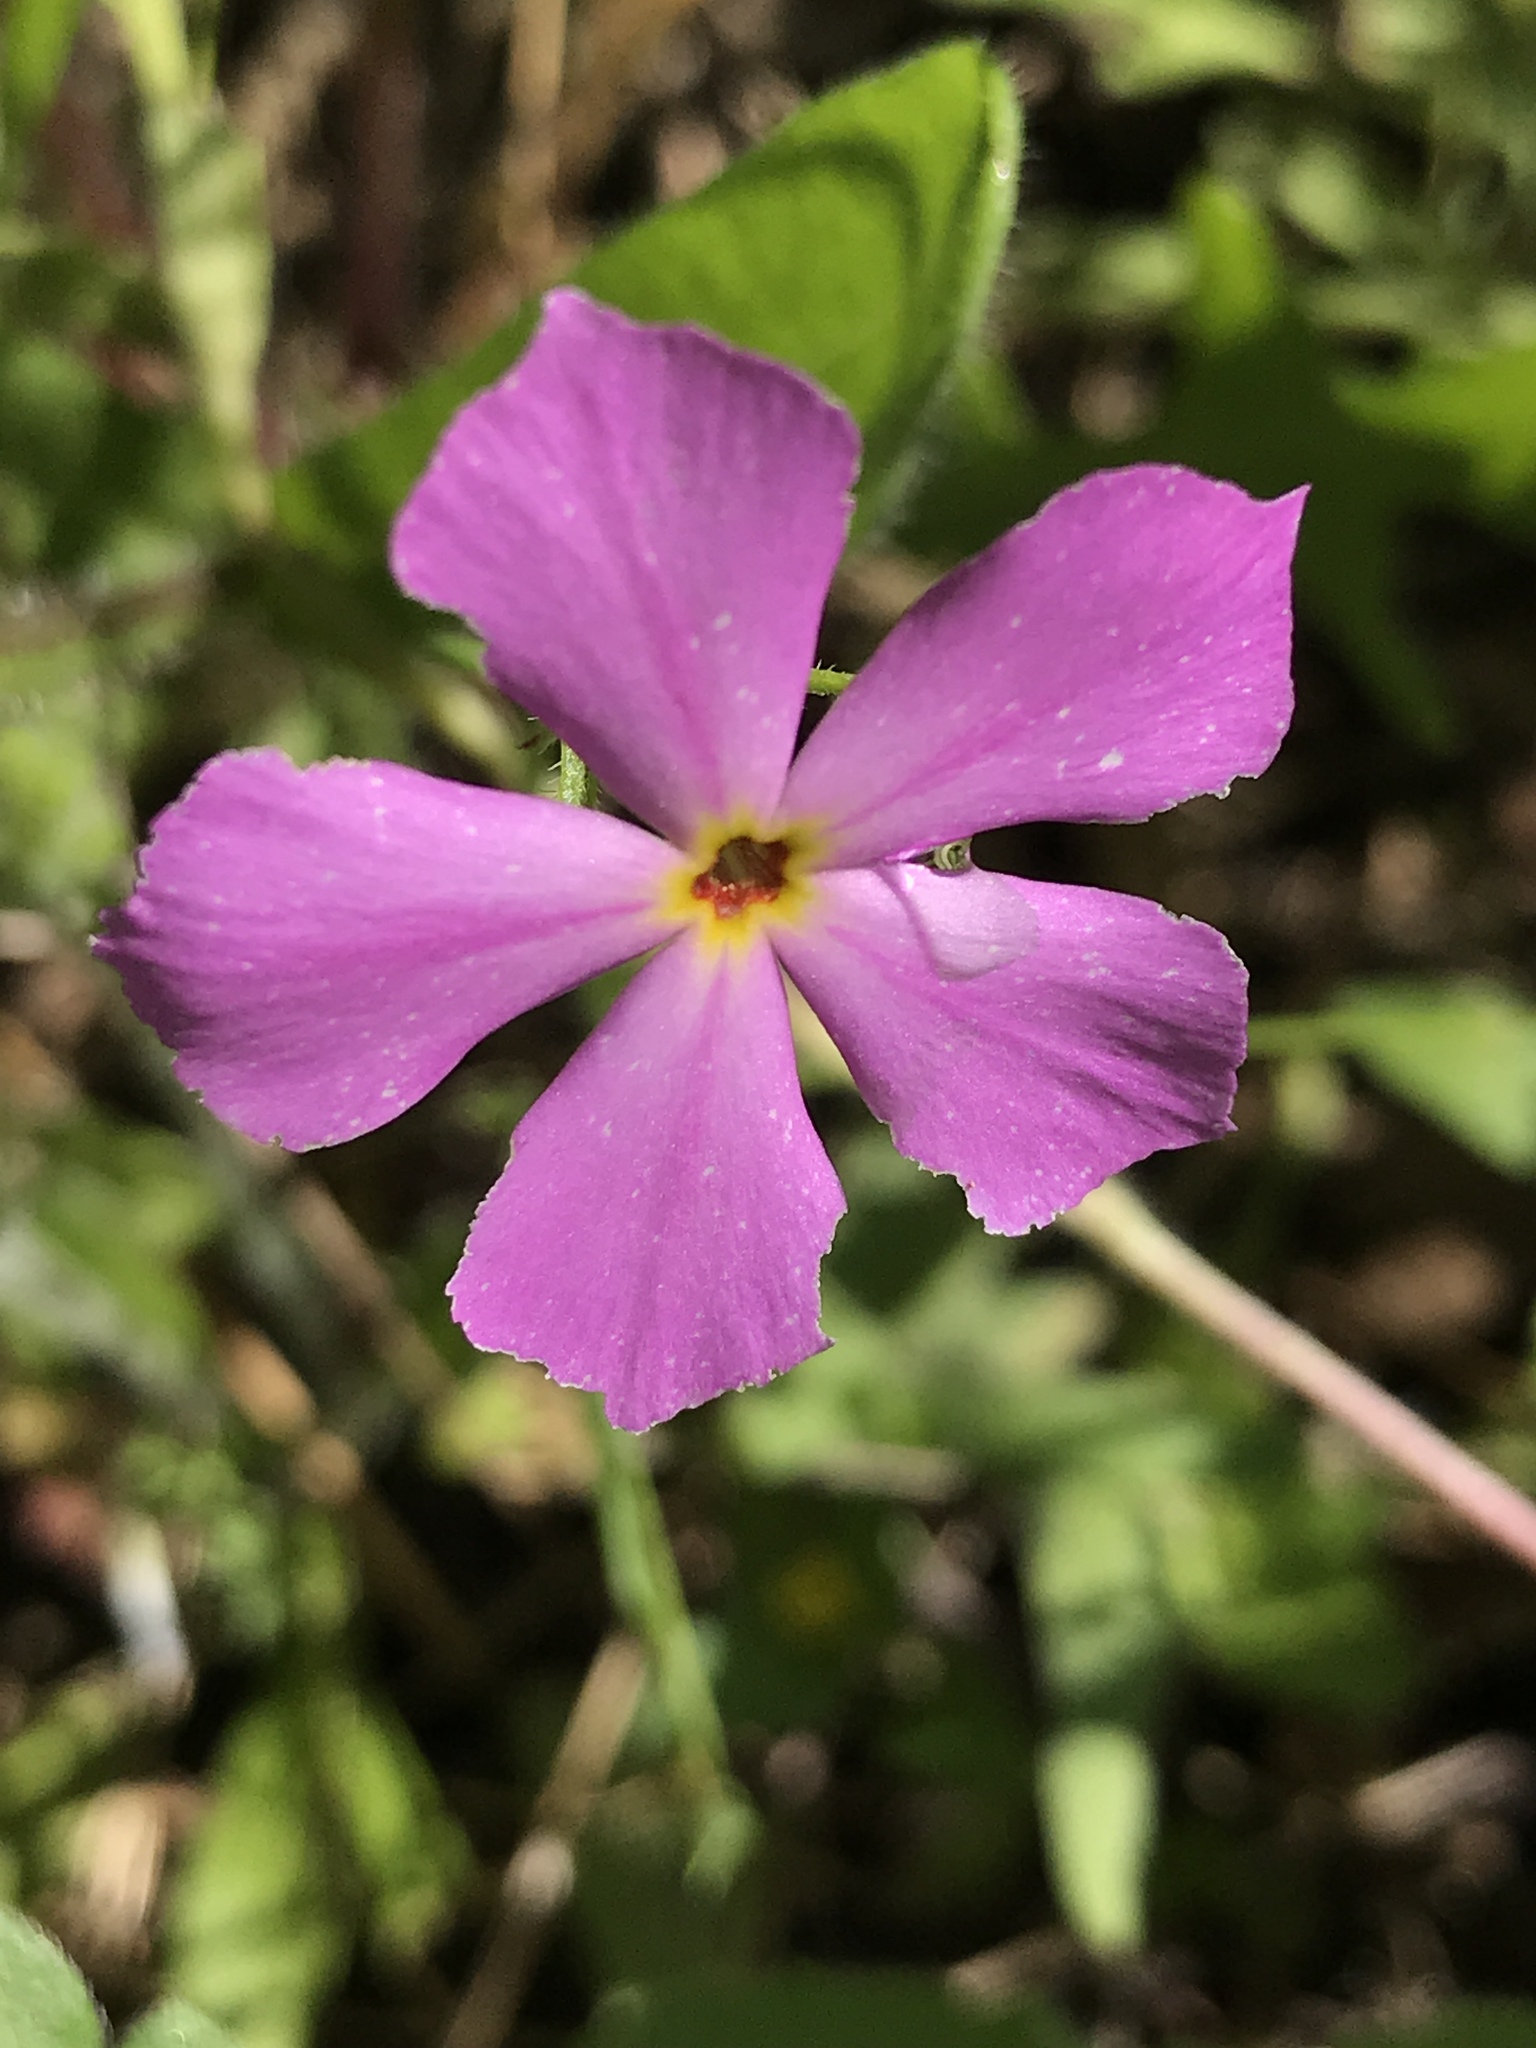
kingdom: Plantae
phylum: Tracheophyta
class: Magnoliopsida
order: Ericales
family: Polemoniaceae
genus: Phlox
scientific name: Phlox roemeriana
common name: Roemer's phlox
